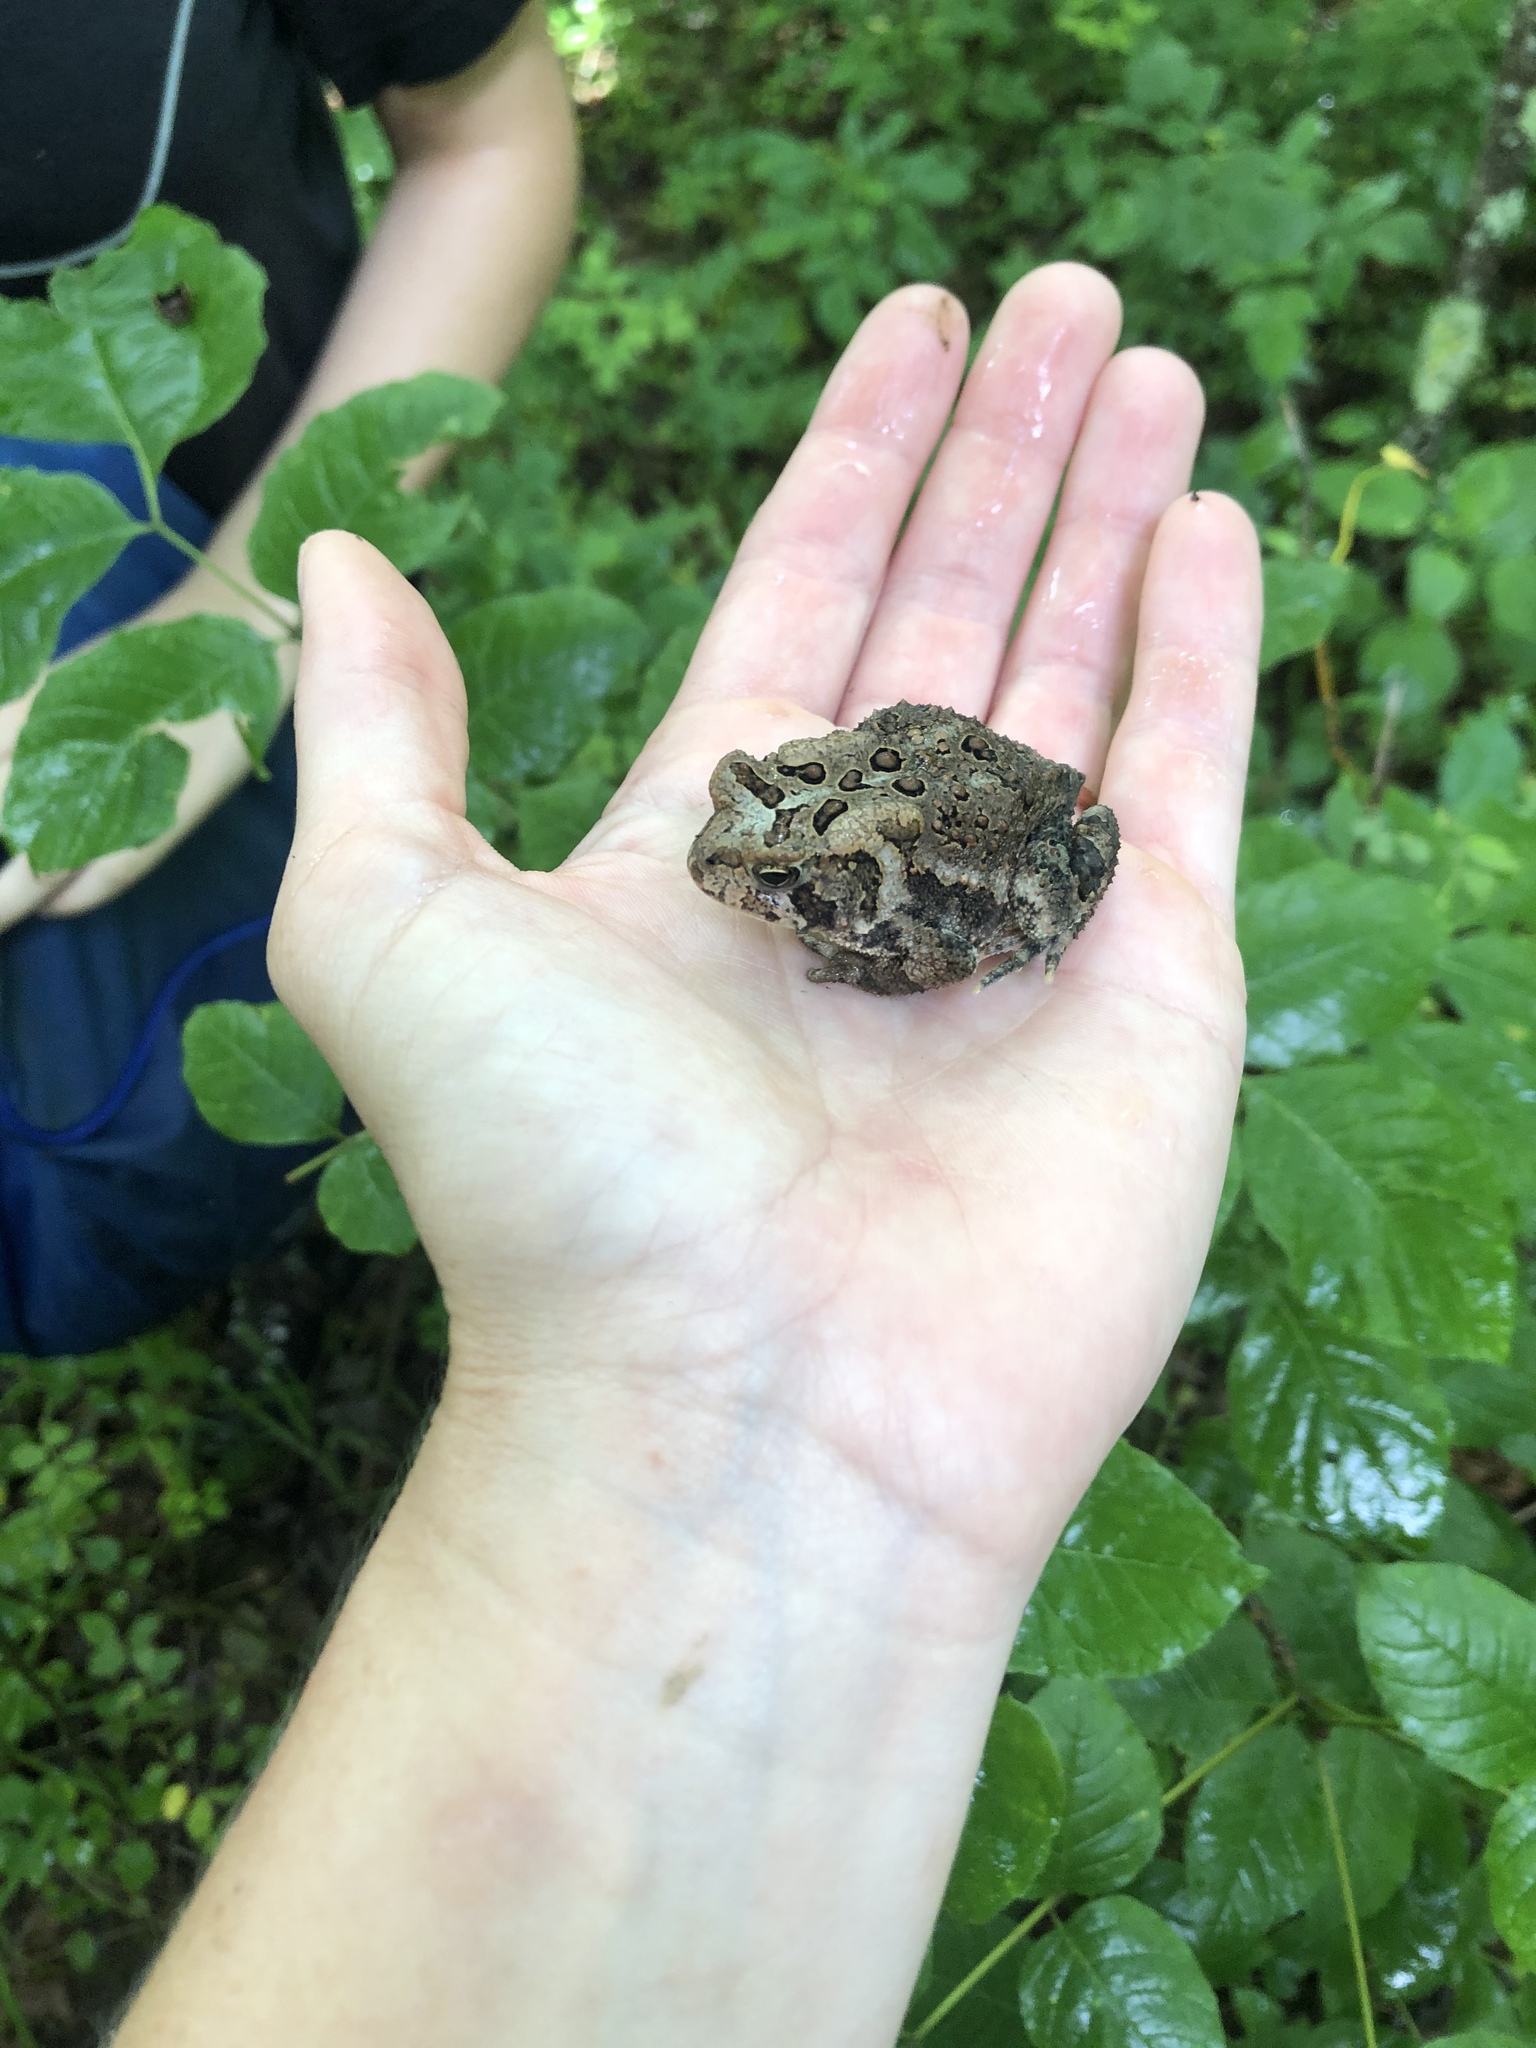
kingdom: Animalia
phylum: Chordata
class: Amphibia
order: Anura
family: Bufonidae
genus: Anaxyrus
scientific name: Anaxyrus americanus
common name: American toad
